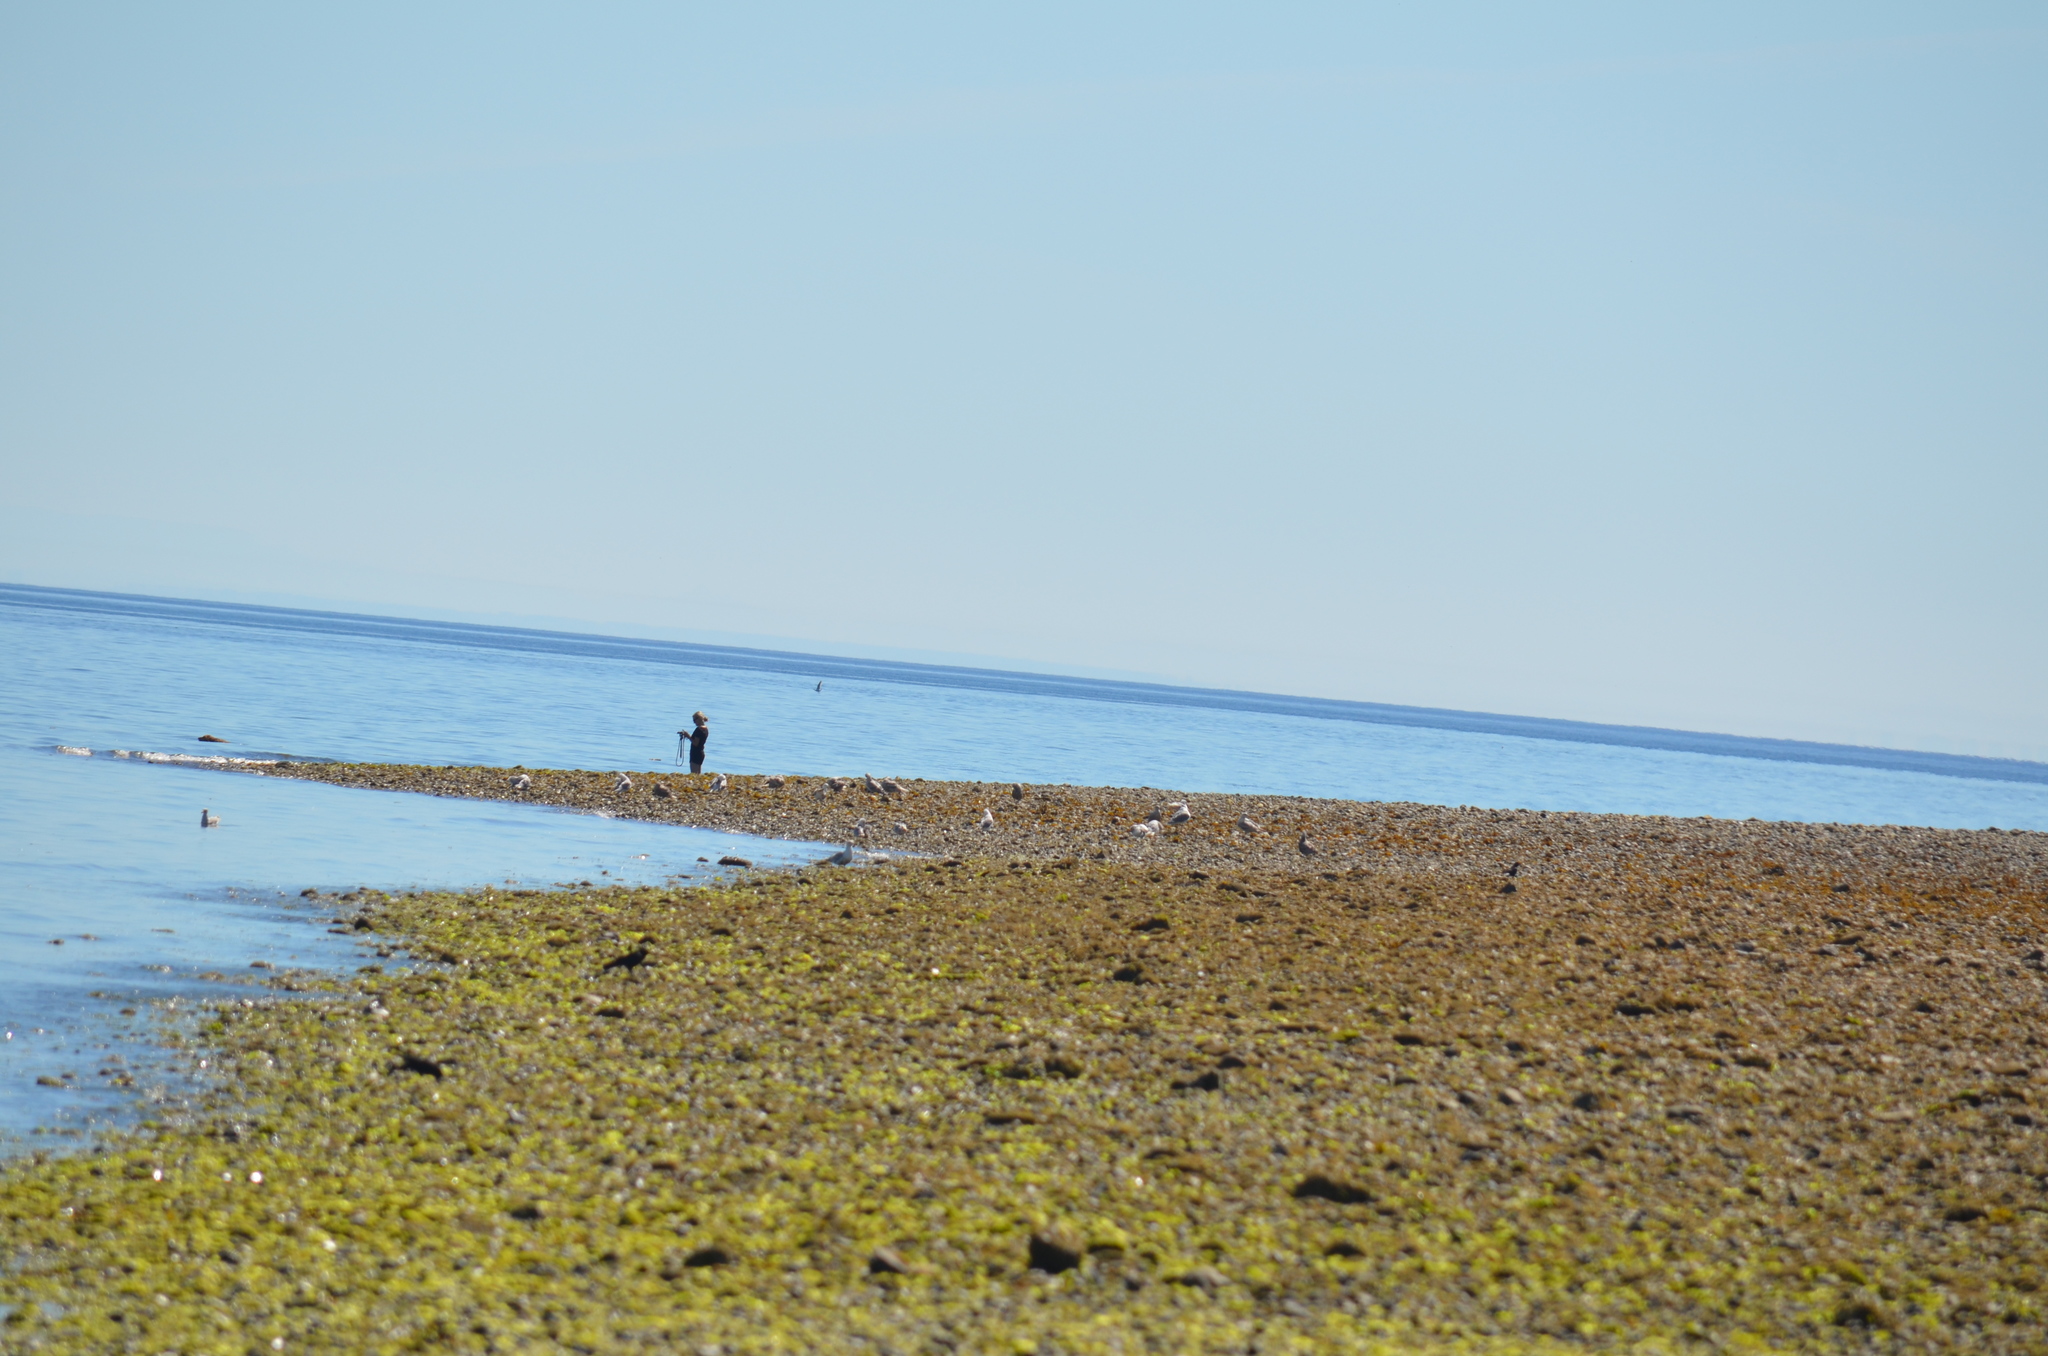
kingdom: Chromista
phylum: Ochrophyta
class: Phaeophyceae
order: Fucales
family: Fucaceae
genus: Fucus
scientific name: Fucus distichus
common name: Rockweed
